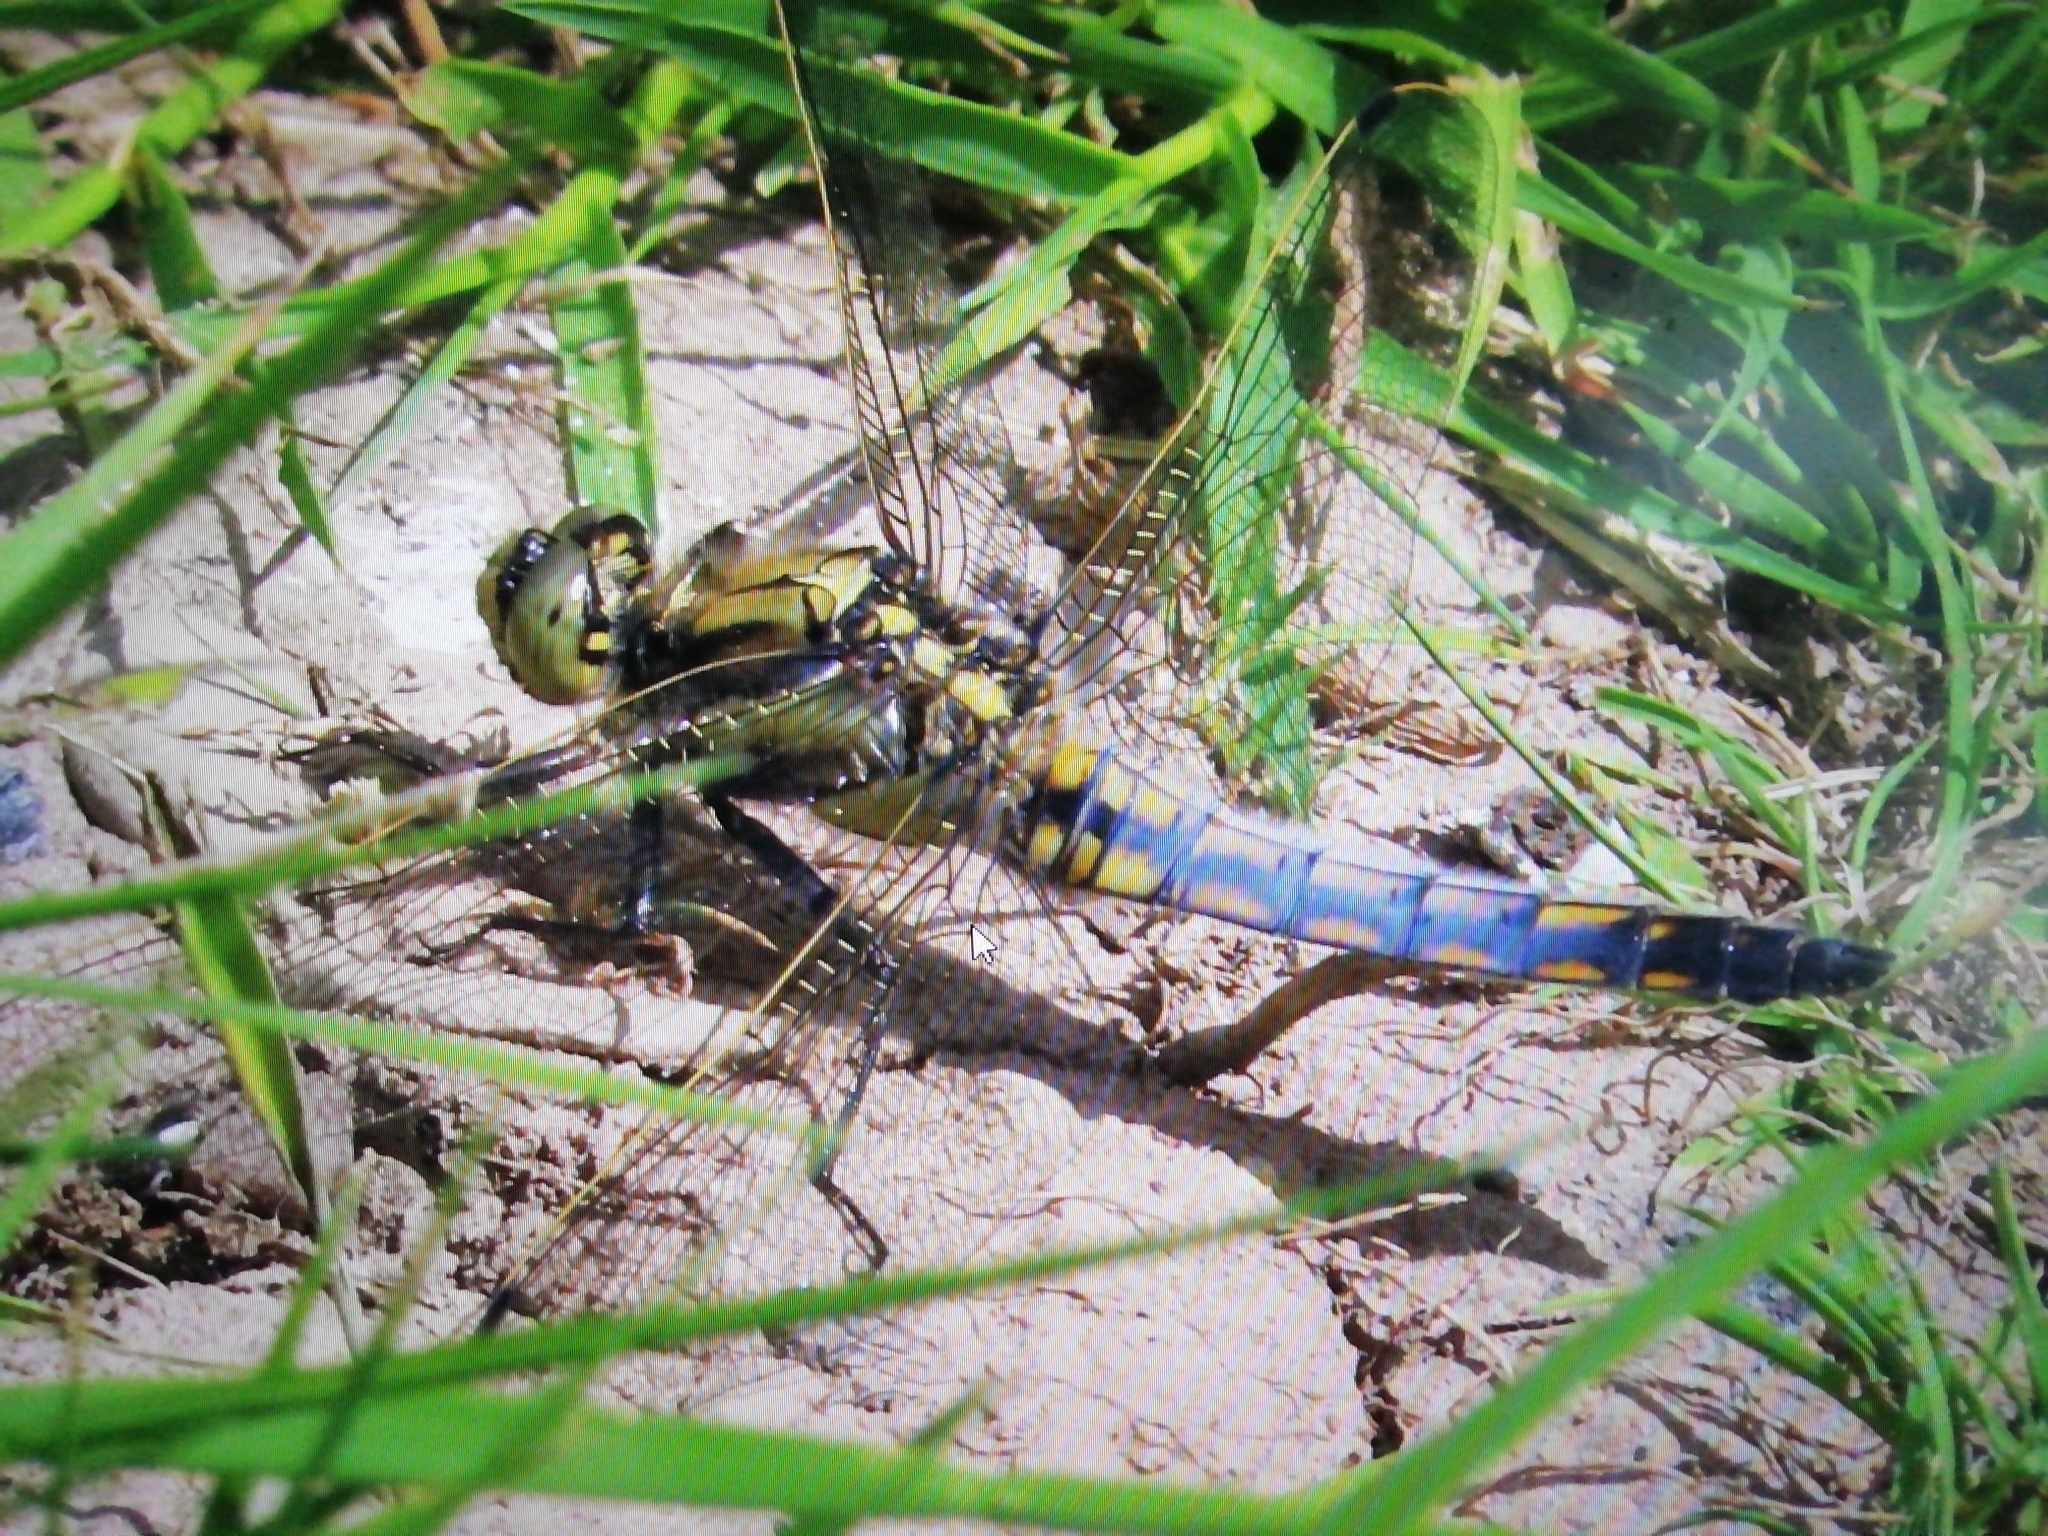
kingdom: Animalia
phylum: Arthropoda
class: Insecta
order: Odonata
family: Libellulidae
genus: Orthetrum
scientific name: Orthetrum cancellatum
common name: Black-tailed skimmer
